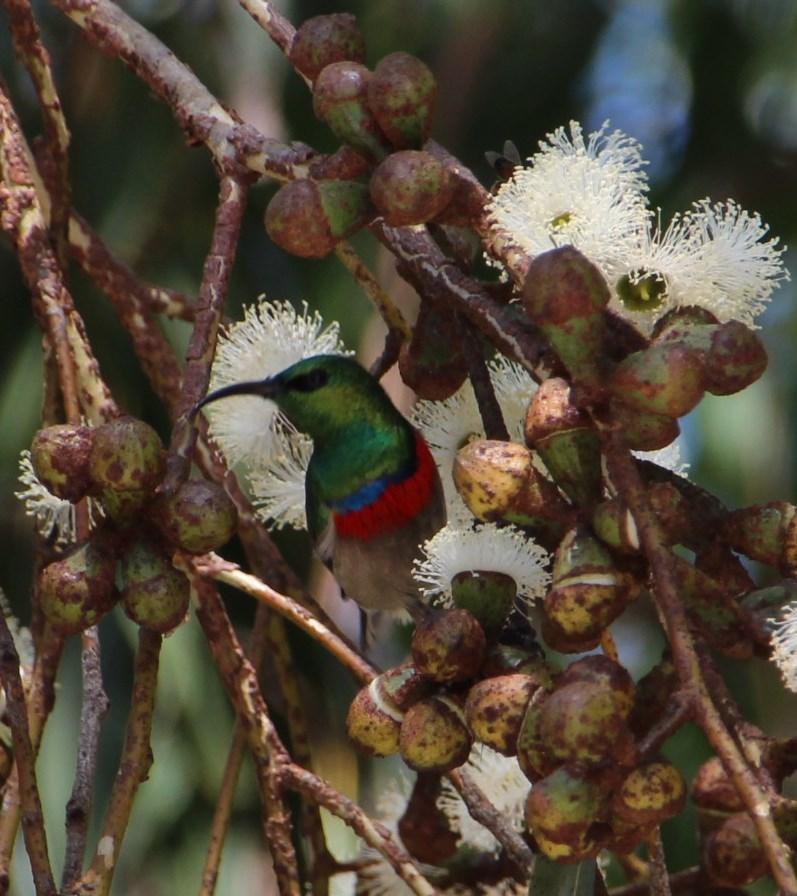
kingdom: Animalia
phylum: Chordata
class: Aves
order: Passeriformes
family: Nectariniidae
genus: Cinnyris
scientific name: Cinnyris chalybeus
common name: Southern double-collared sunbird
